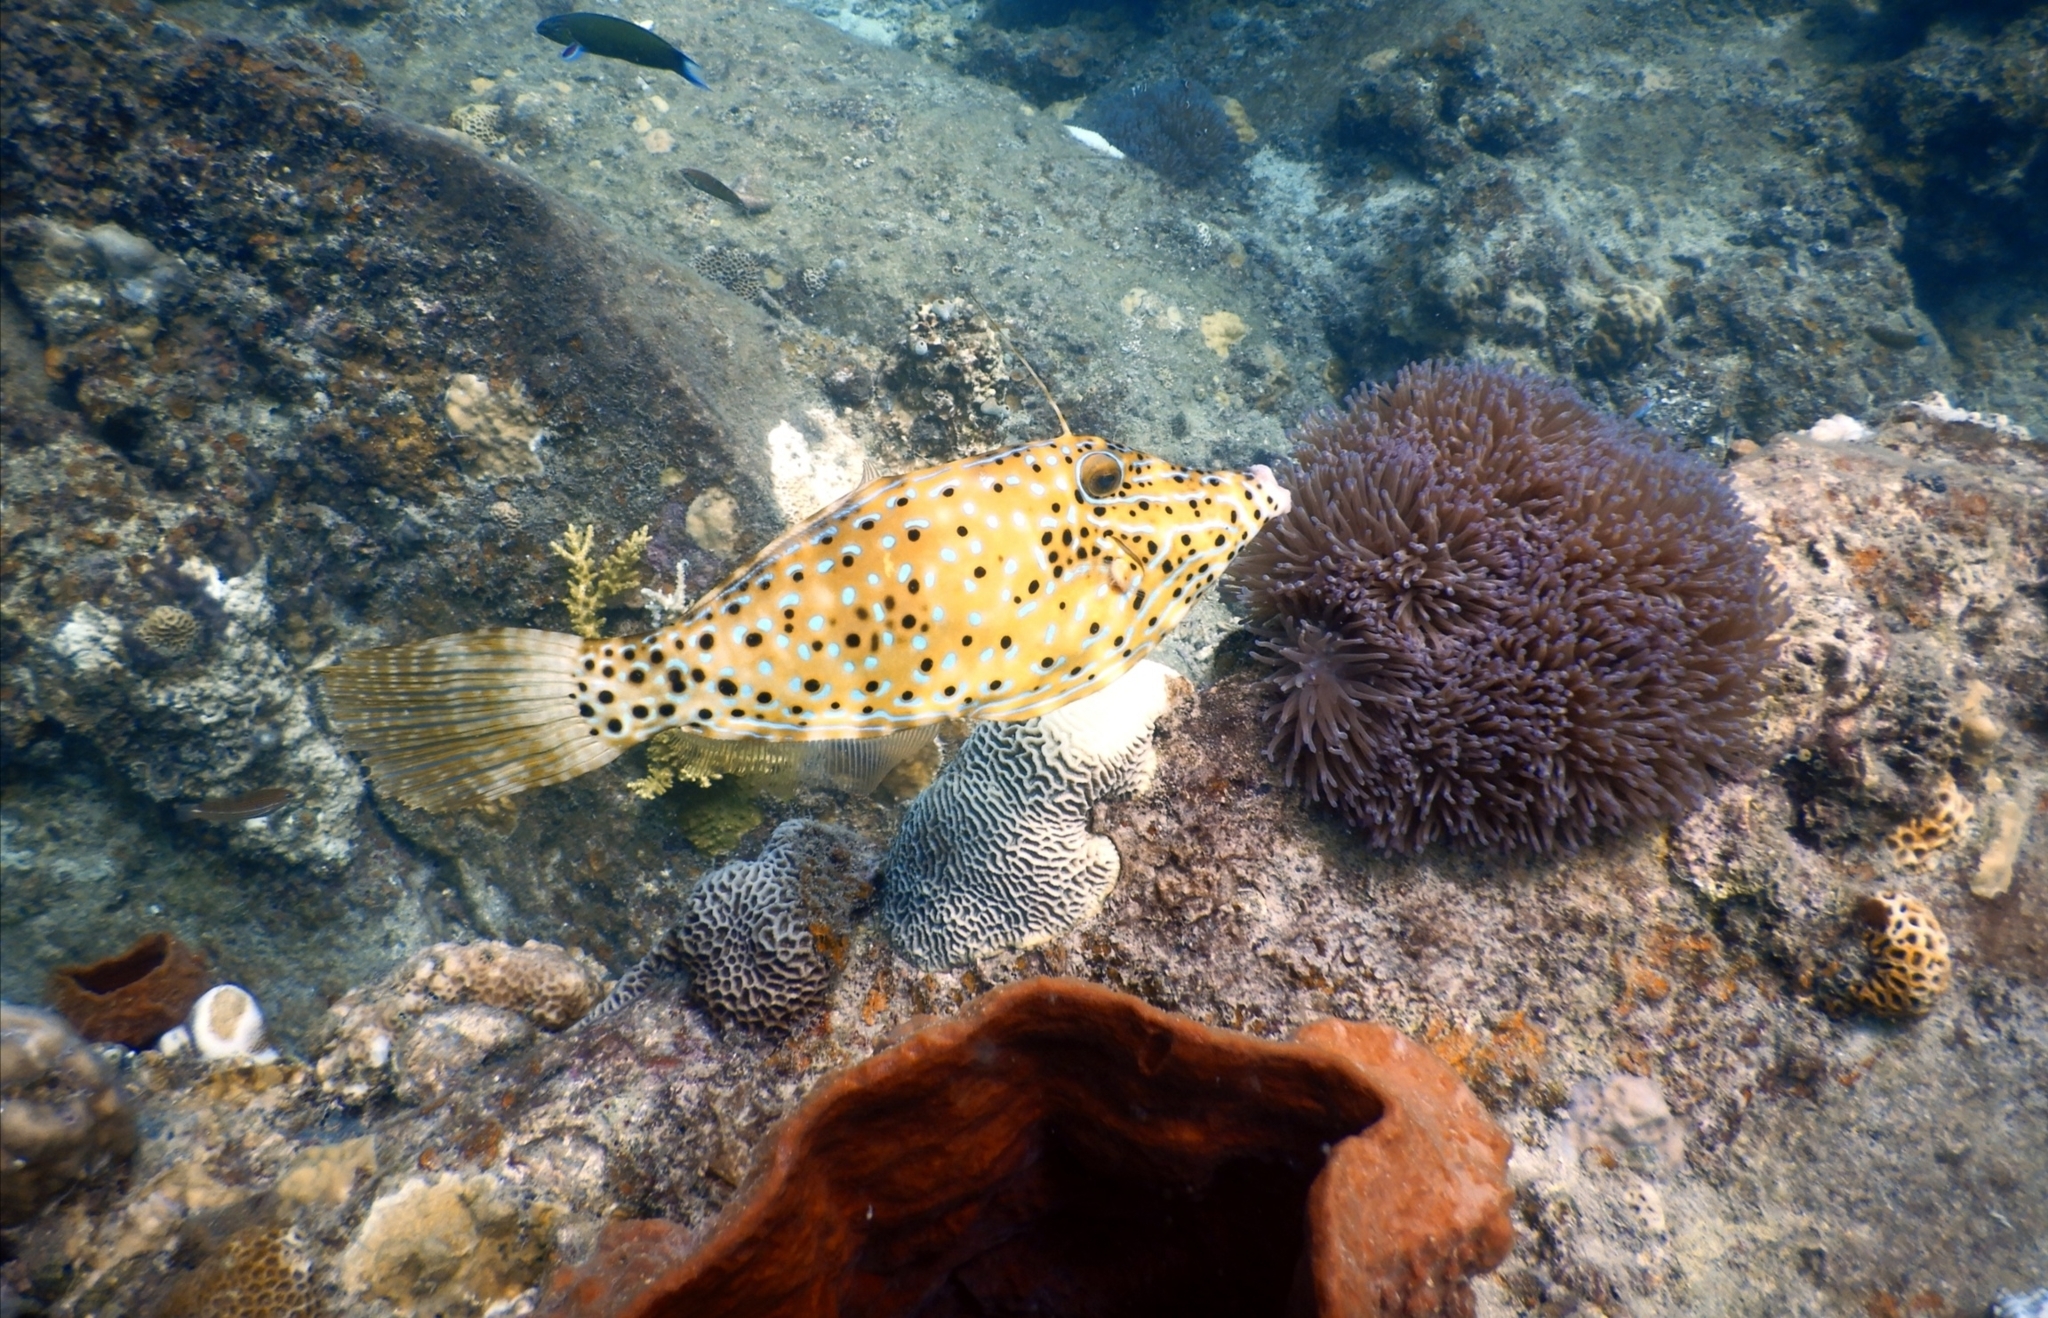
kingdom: Animalia
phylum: Chordata
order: Tetraodontiformes
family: Monacanthidae
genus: Aluterus
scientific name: Aluterus scriptus
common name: Scribbled leatherjacket filefish
